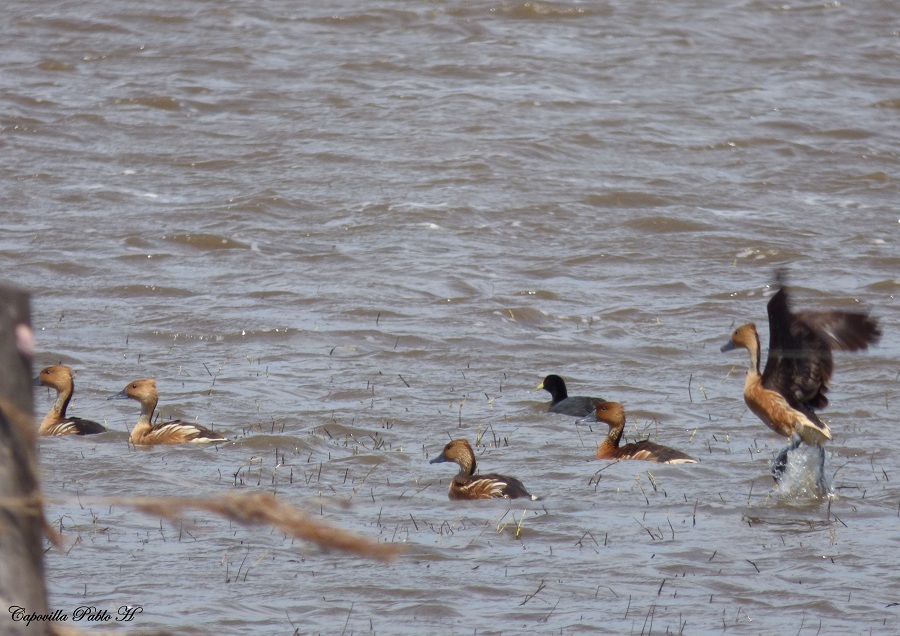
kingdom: Animalia
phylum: Chordata
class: Aves
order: Anseriformes
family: Anatidae
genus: Dendrocygna
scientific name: Dendrocygna bicolor
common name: Fulvous whistling duck
